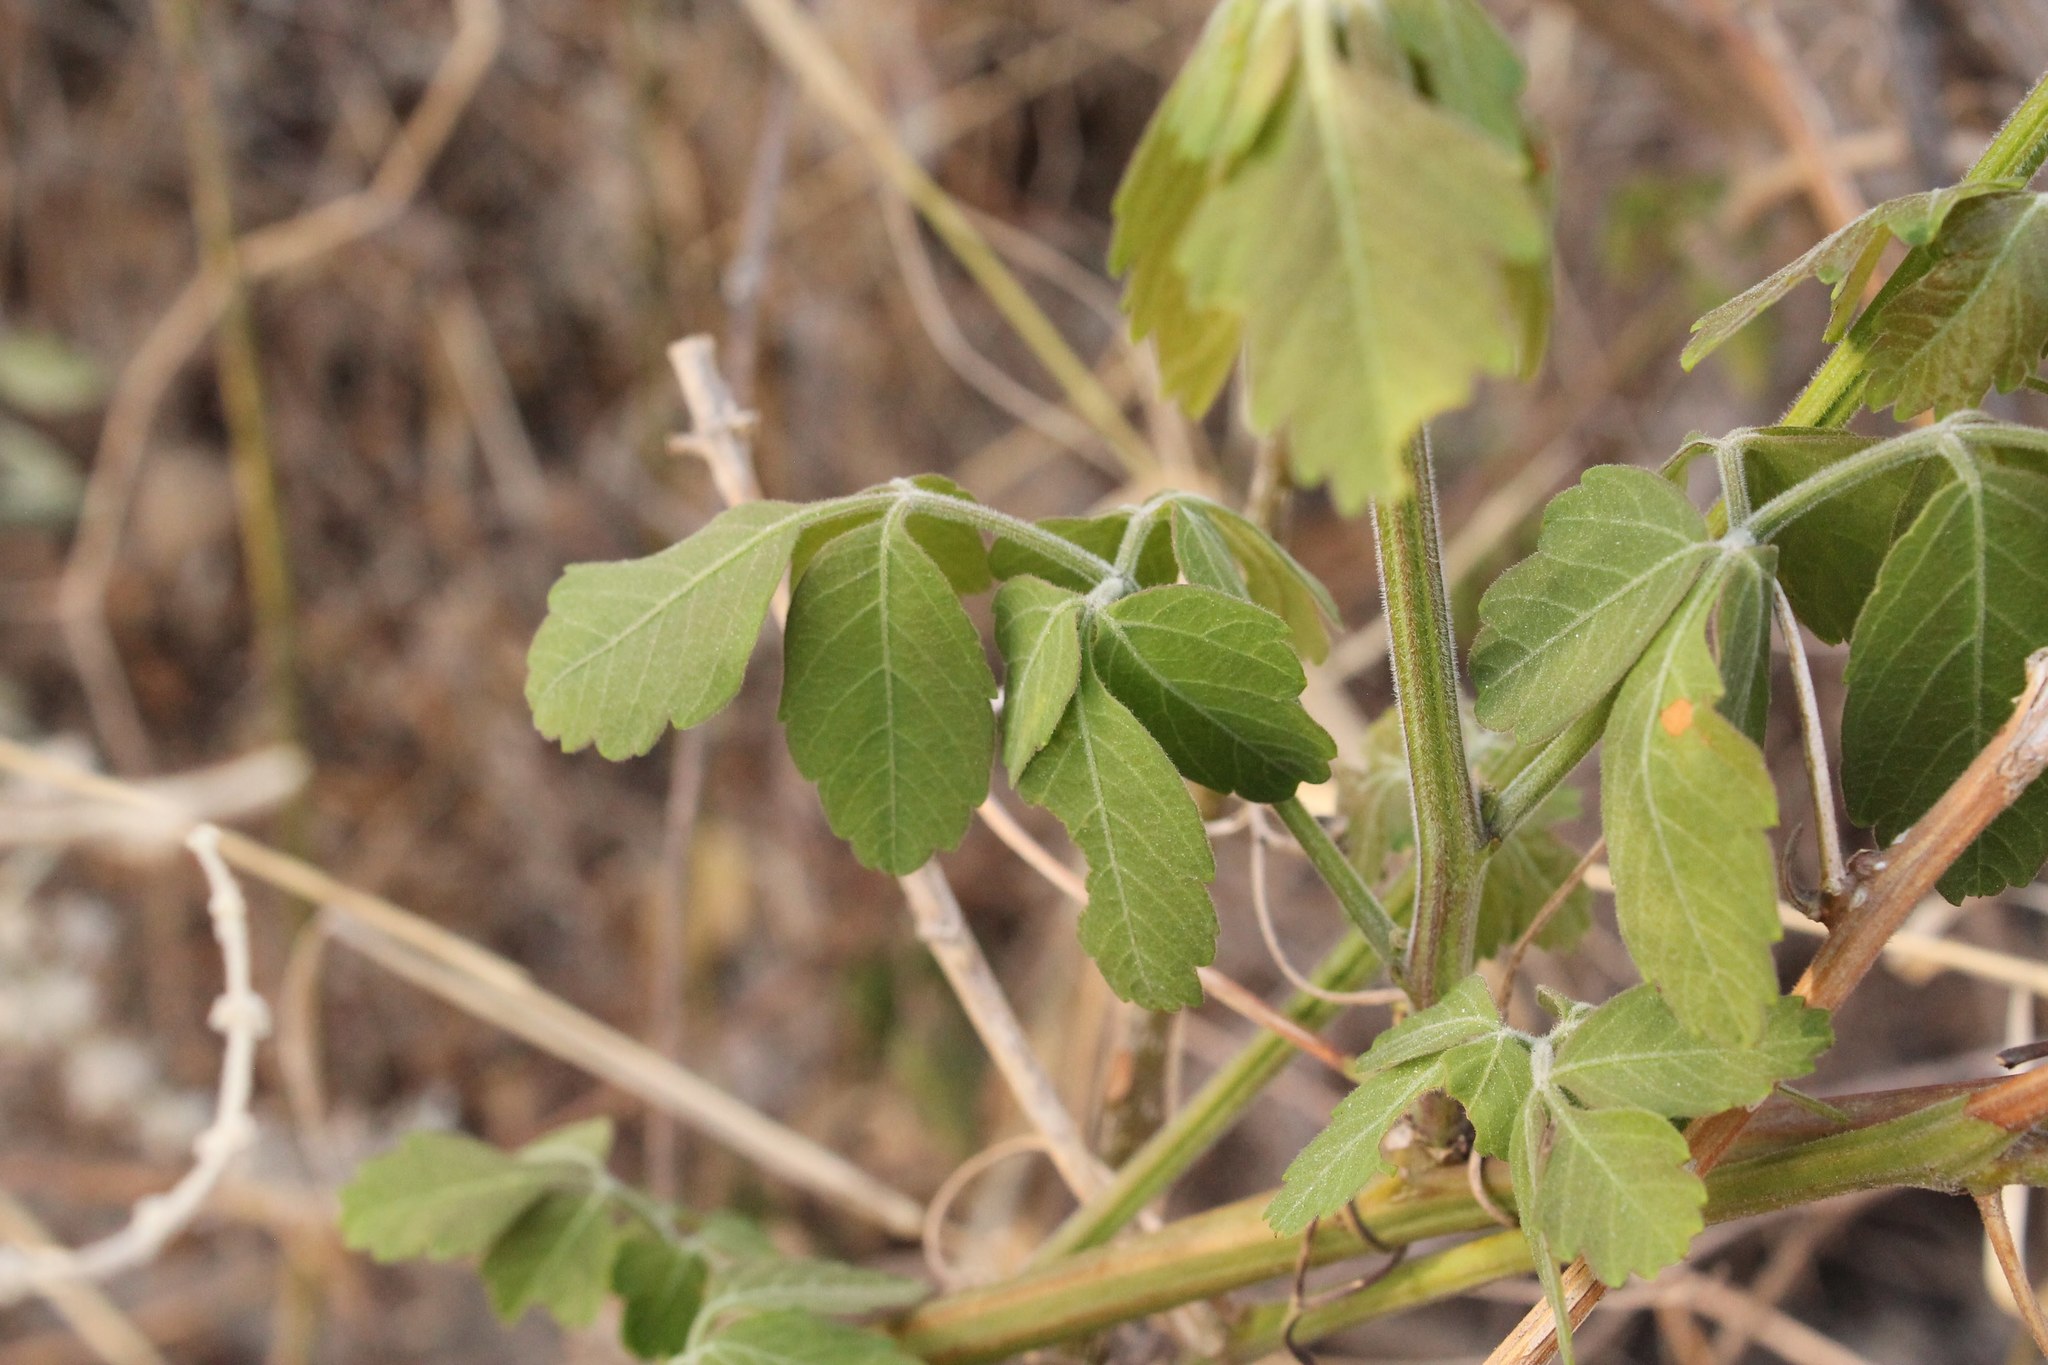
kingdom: Plantae
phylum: Tracheophyta
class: Magnoliopsida
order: Sapindales
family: Sapindaceae
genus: Serjania
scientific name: Serjania triquetra
